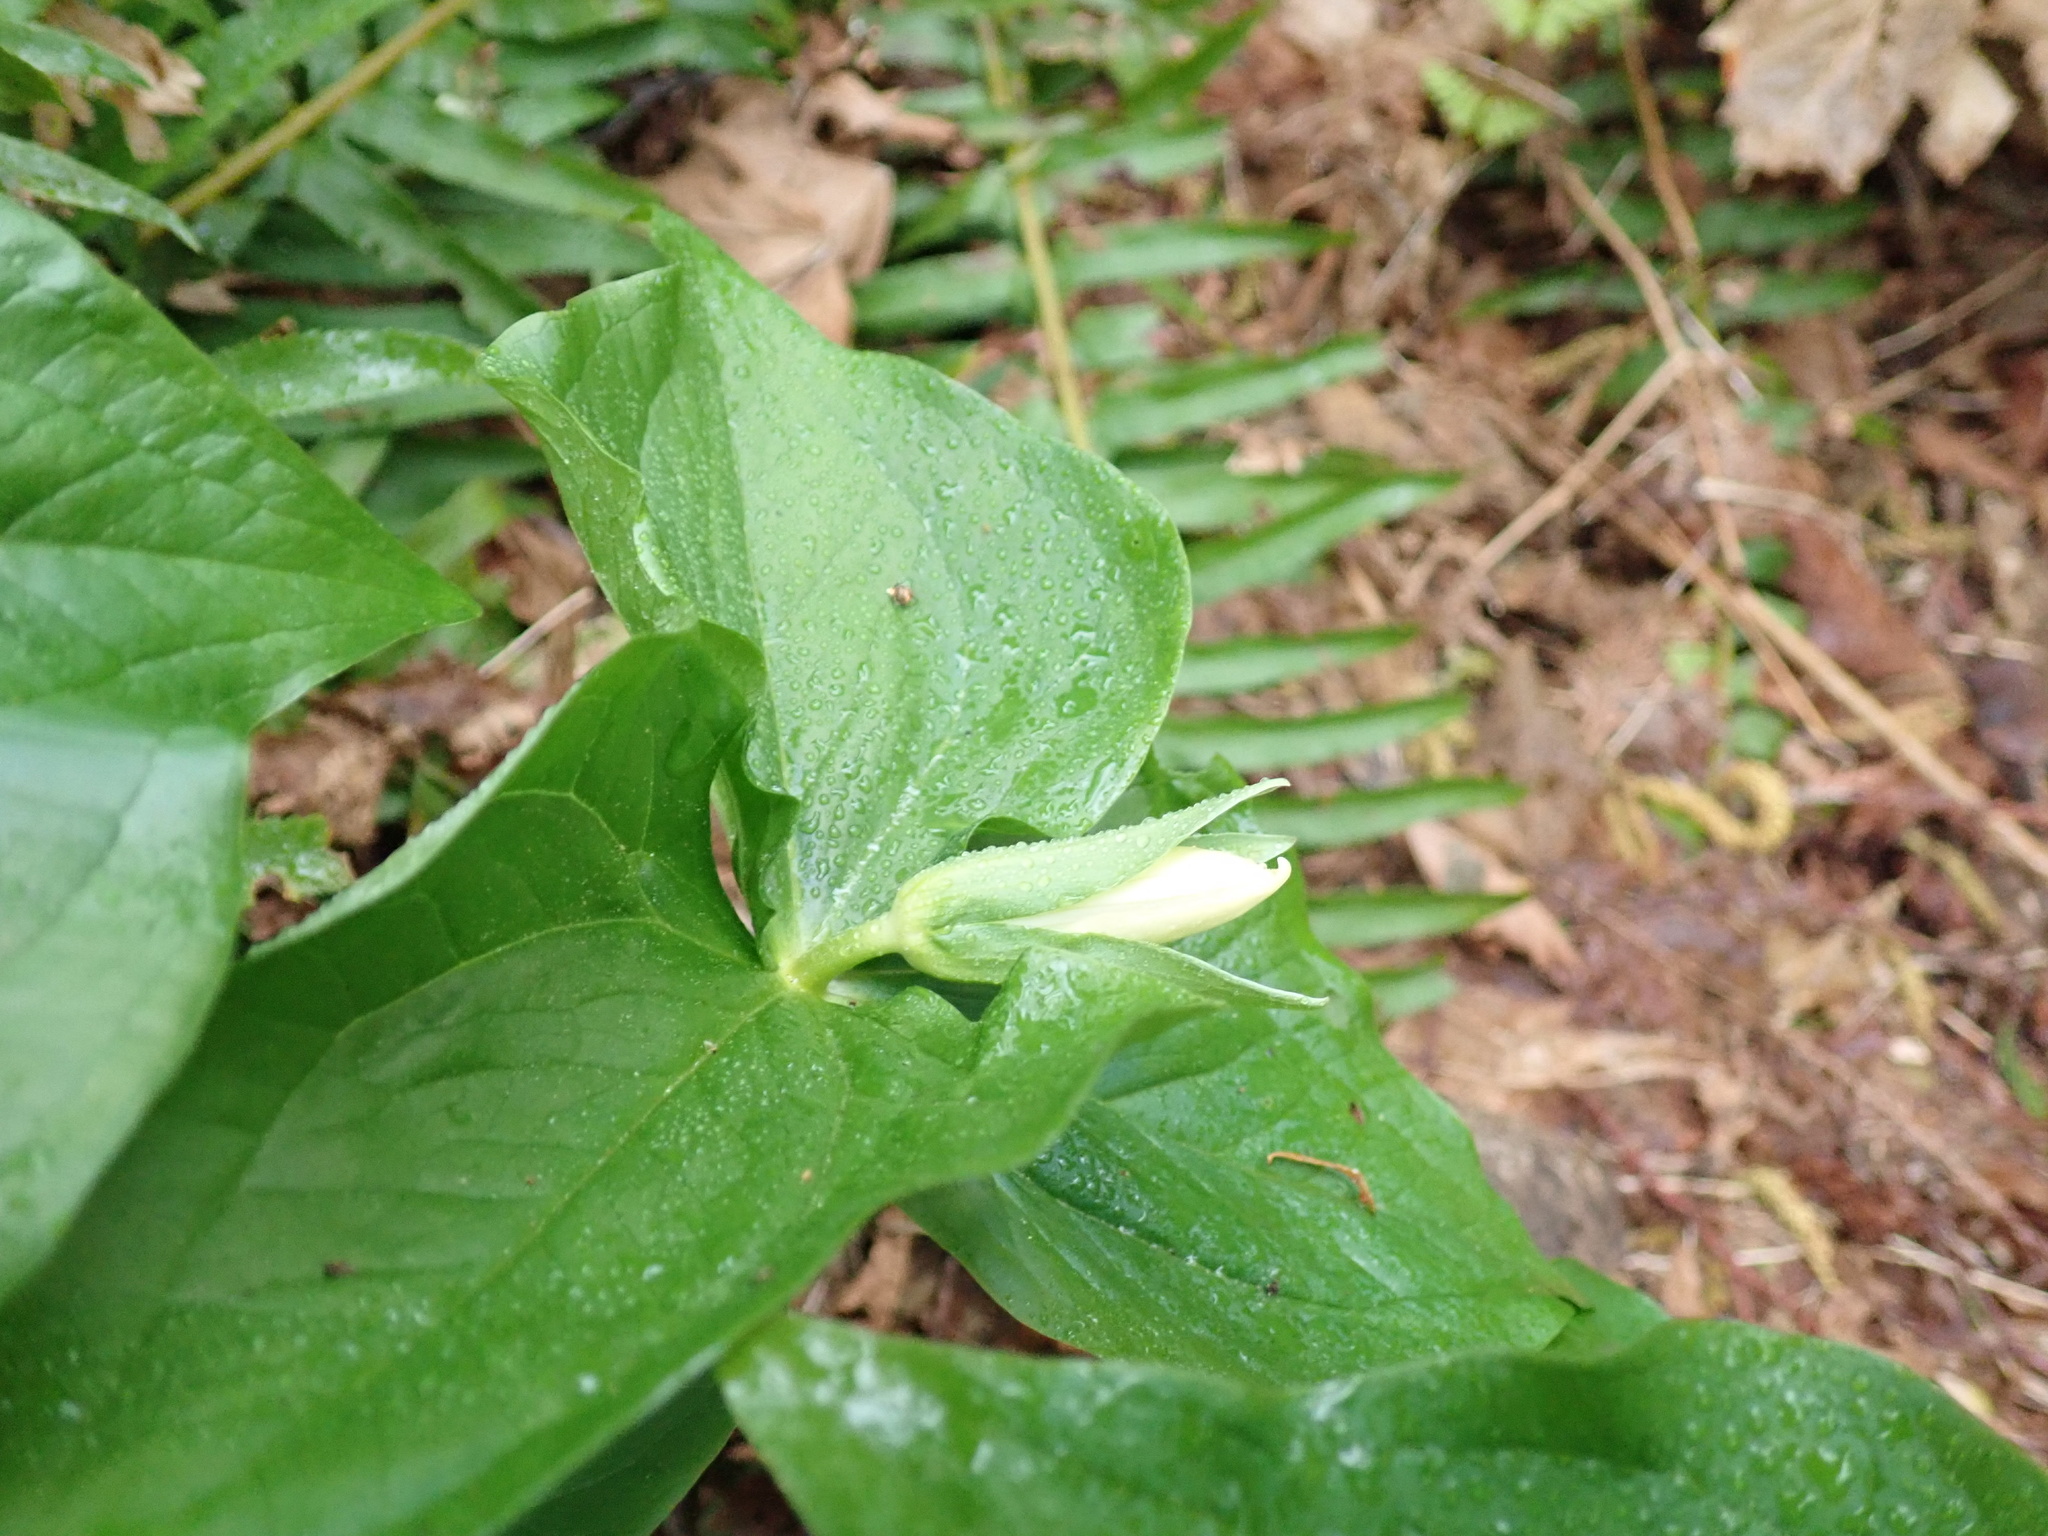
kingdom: Plantae
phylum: Tracheophyta
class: Liliopsida
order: Liliales
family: Melanthiaceae
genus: Trillium
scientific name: Trillium ovatum
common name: Pacific trillium
